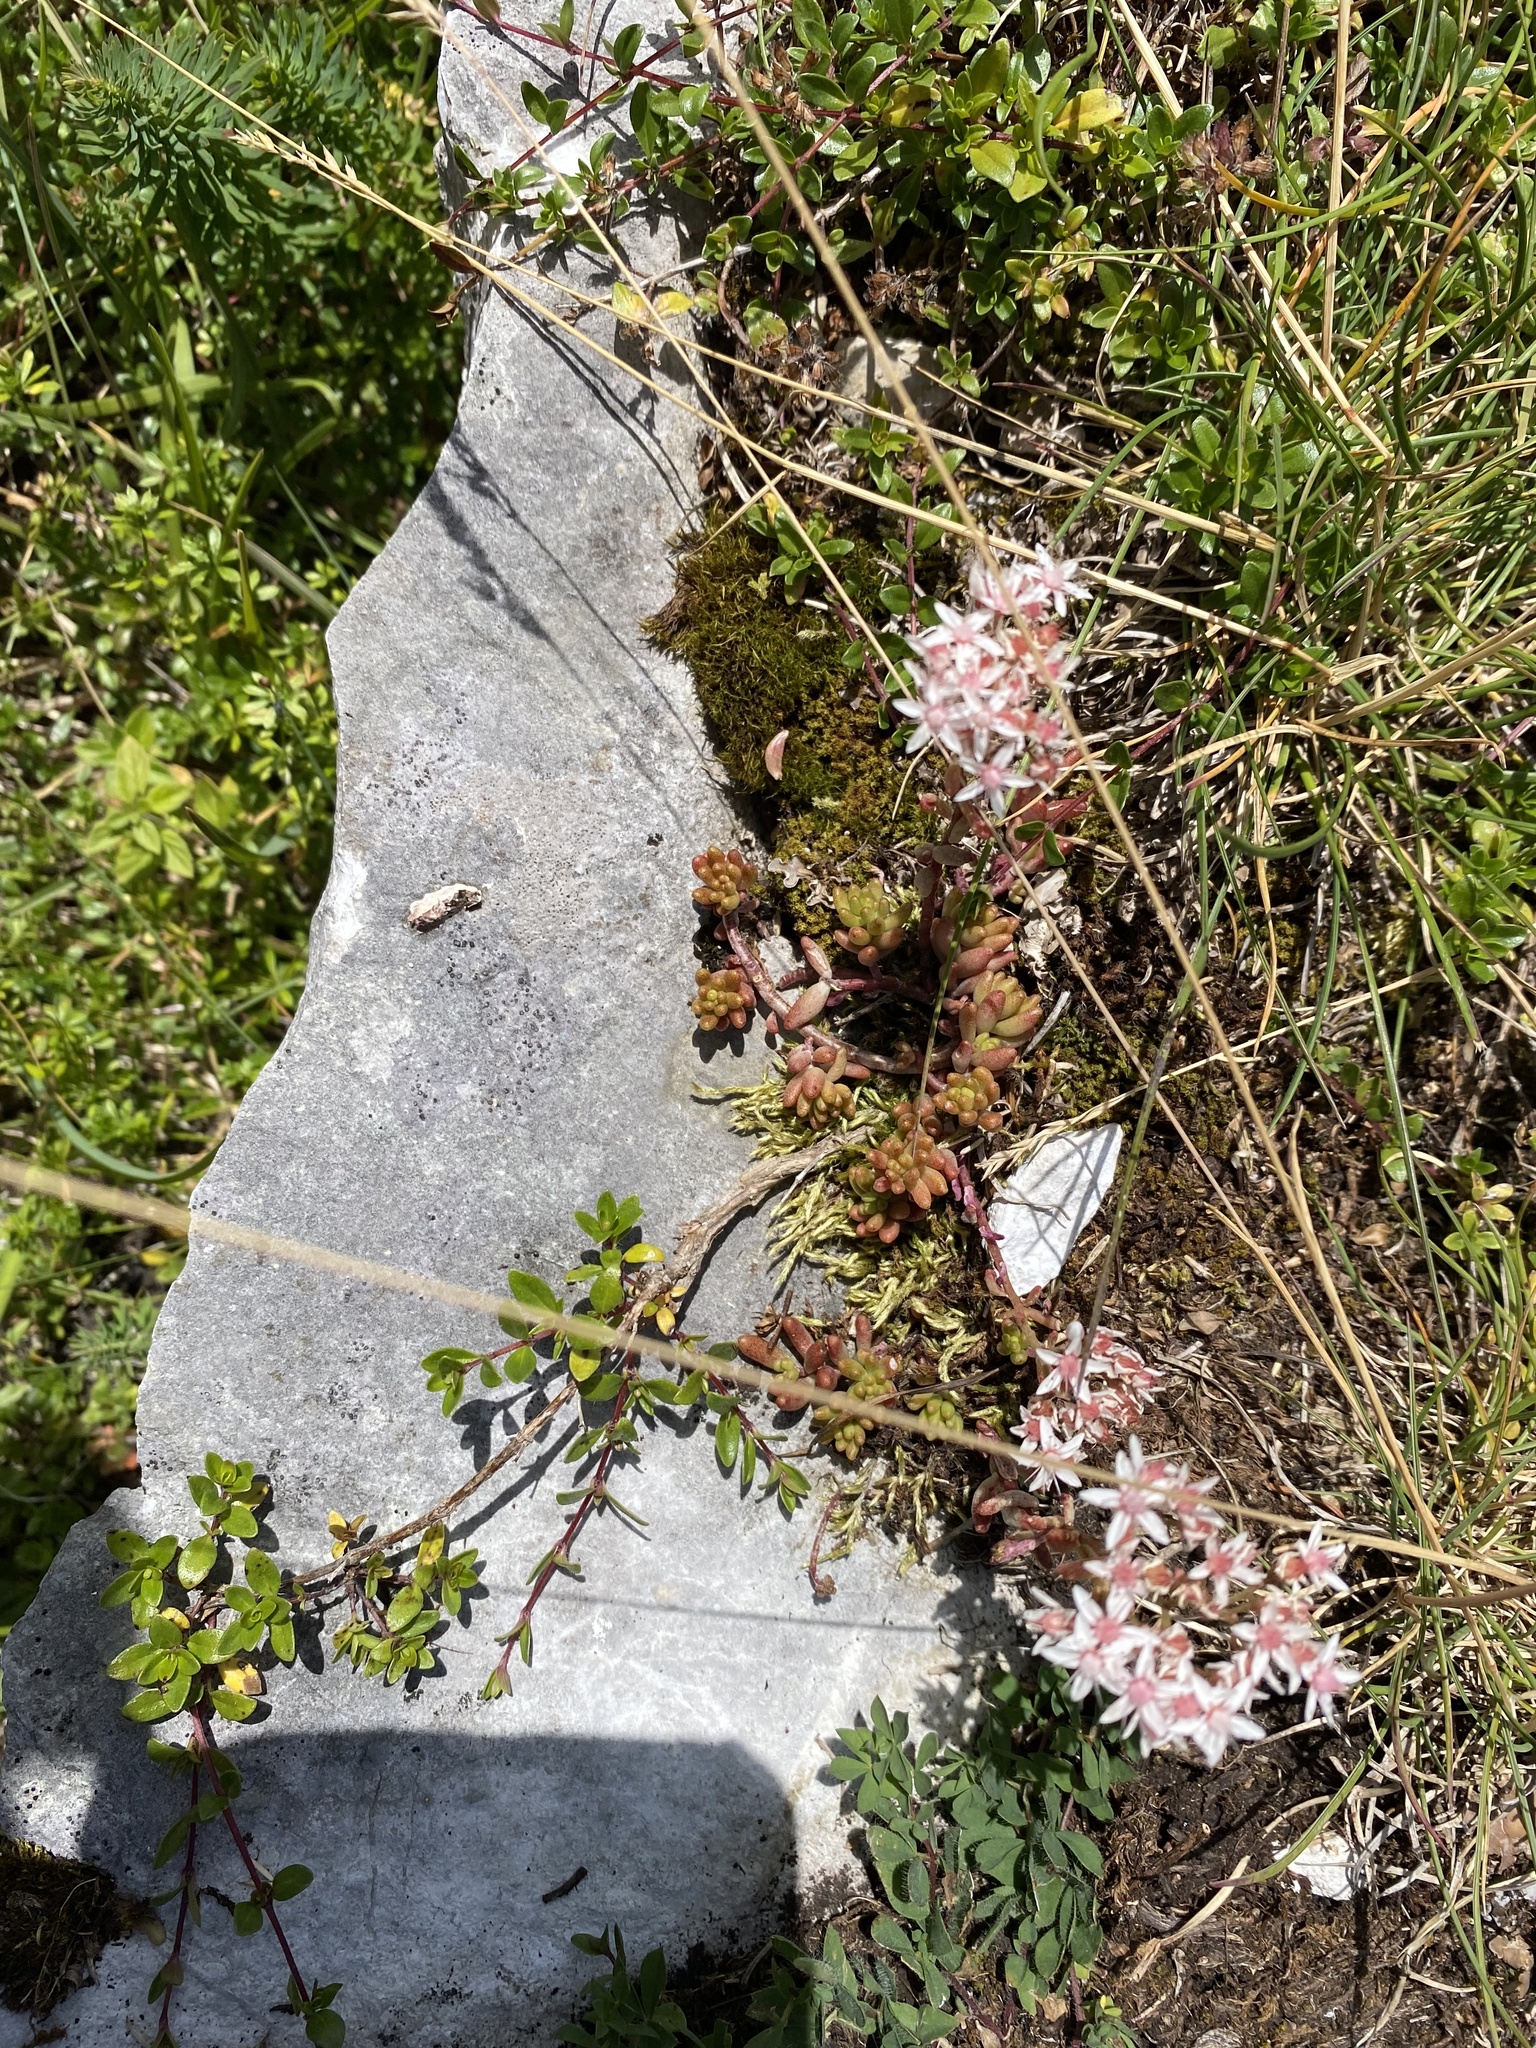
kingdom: Plantae
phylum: Tracheophyta
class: Magnoliopsida
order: Saxifragales
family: Crassulaceae
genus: Sedum
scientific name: Sedum album
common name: White stonecrop
